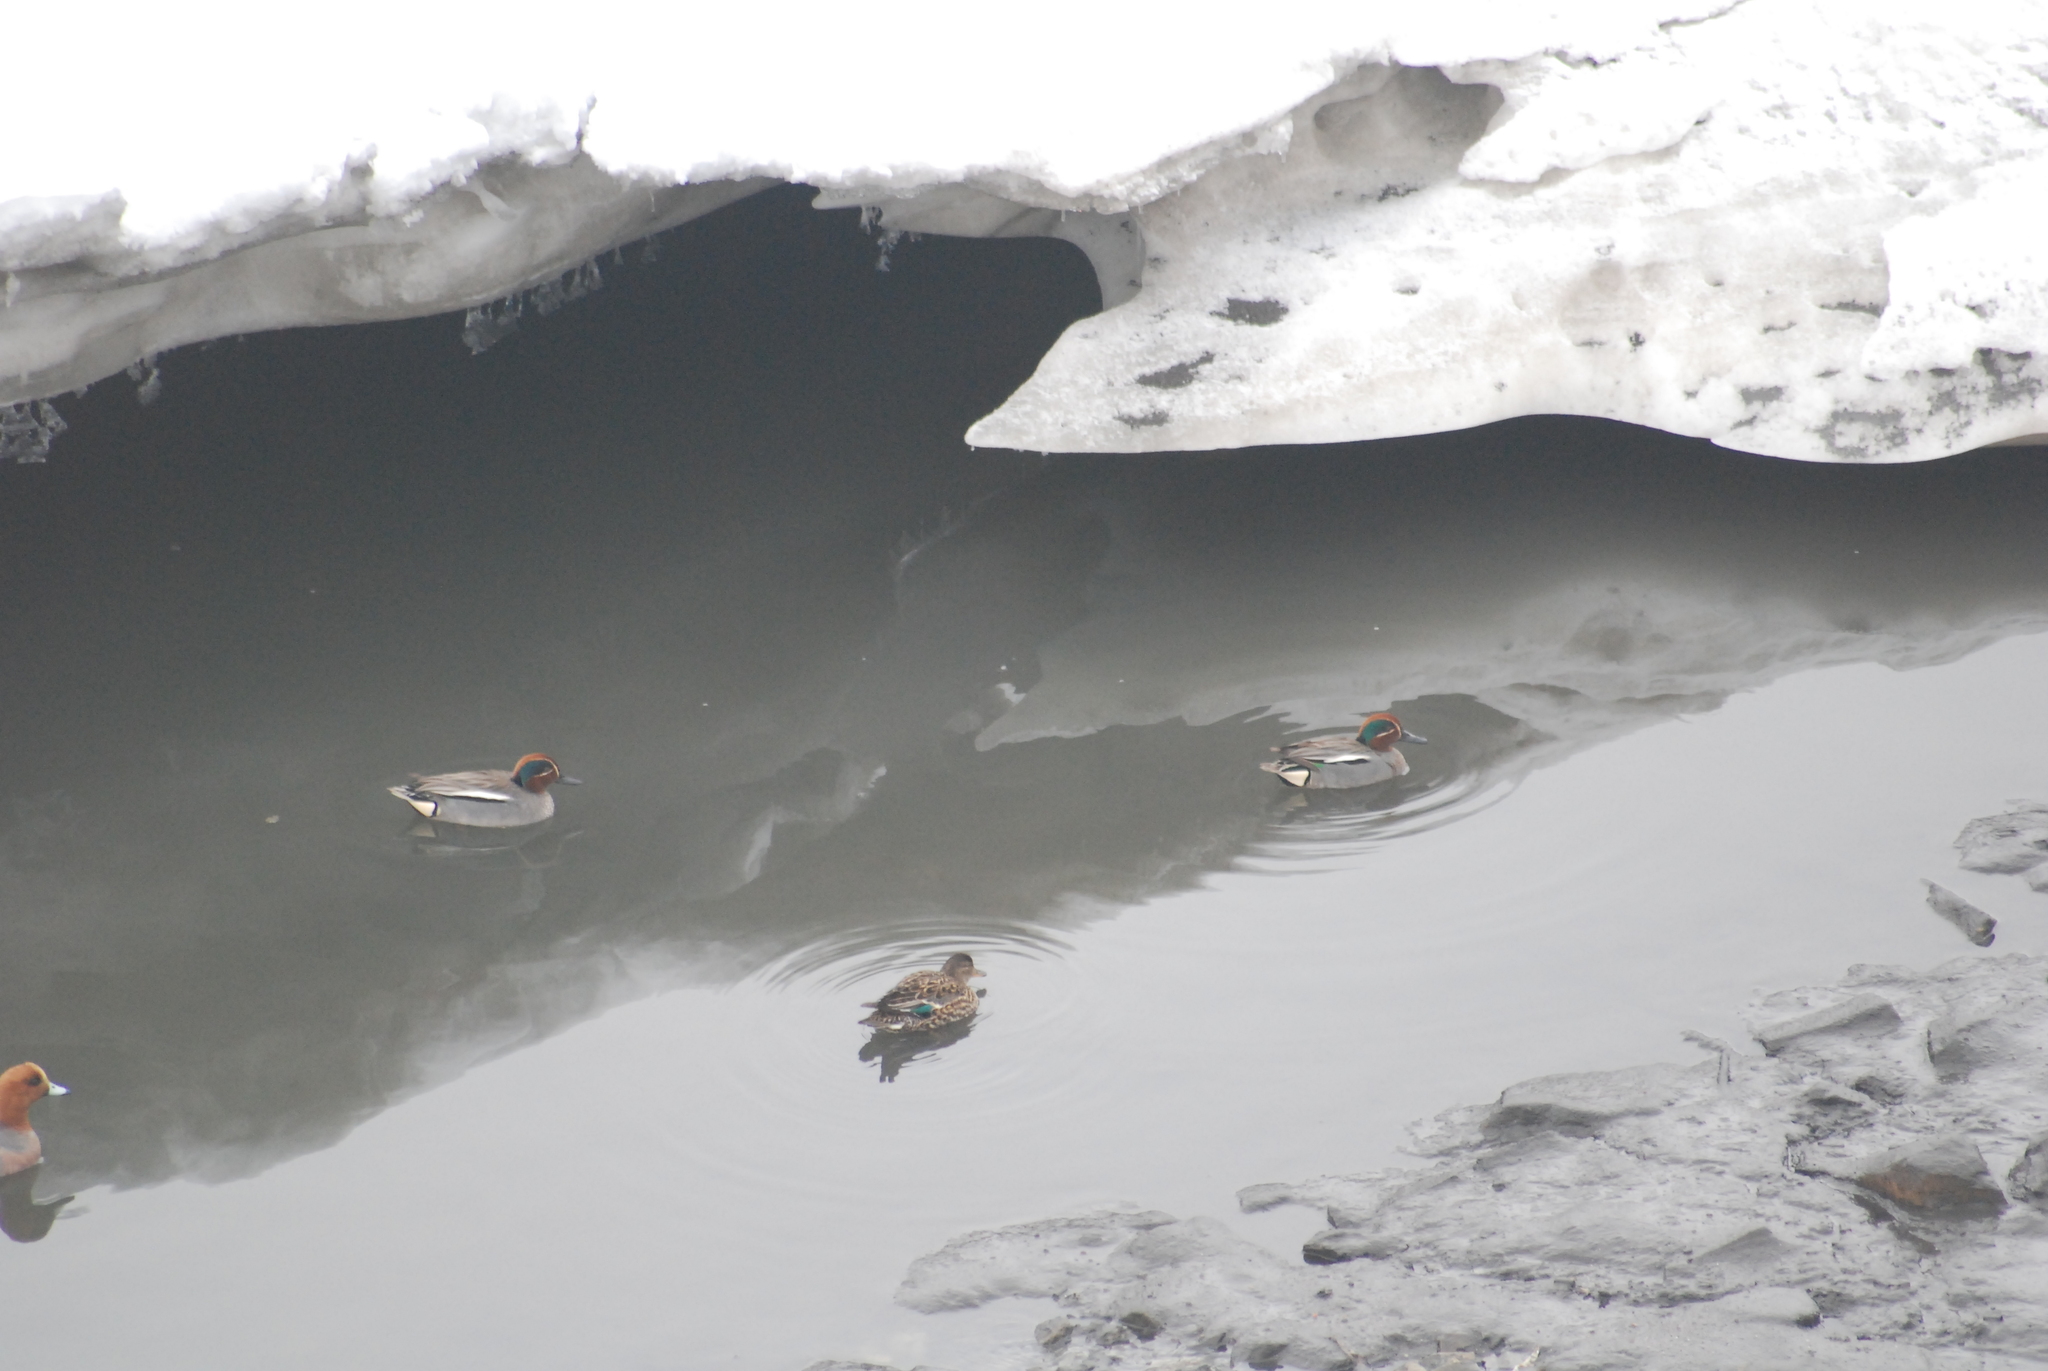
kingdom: Animalia
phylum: Chordata
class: Aves
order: Anseriformes
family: Anatidae
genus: Anas
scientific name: Anas crecca
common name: Eurasian teal
